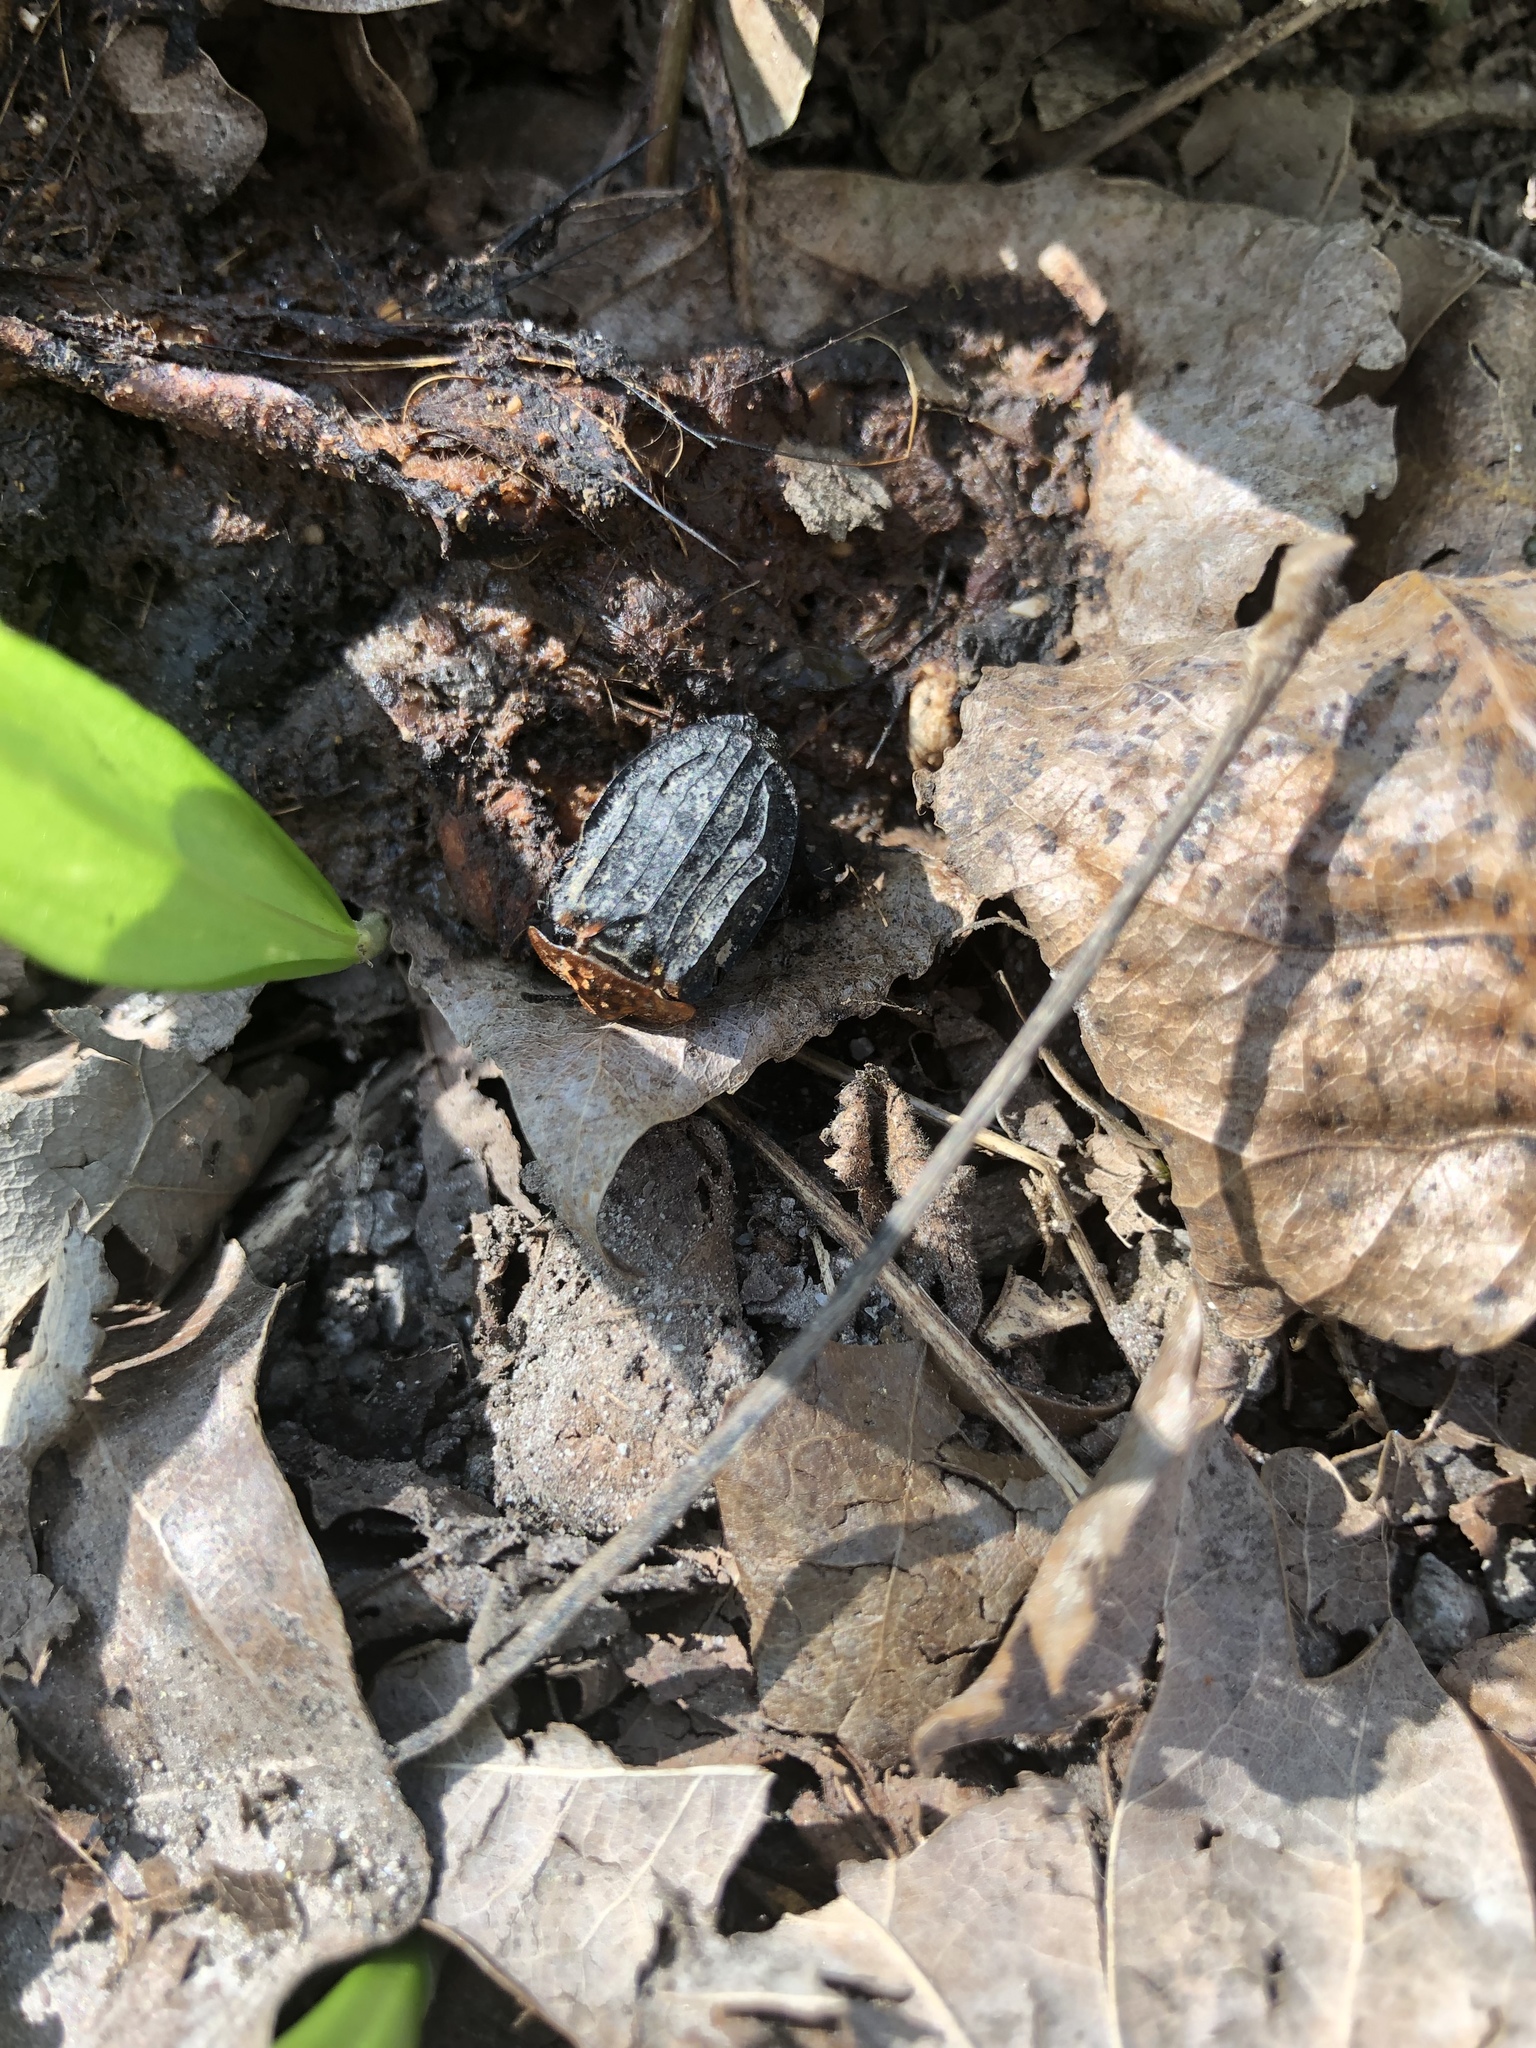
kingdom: Animalia
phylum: Arthropoda
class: Insecta
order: Coleoptera
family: Staphylinidae
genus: Oiceoptoma
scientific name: Oiceoptoma thoracicum
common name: Red-breasted carrion beetle
